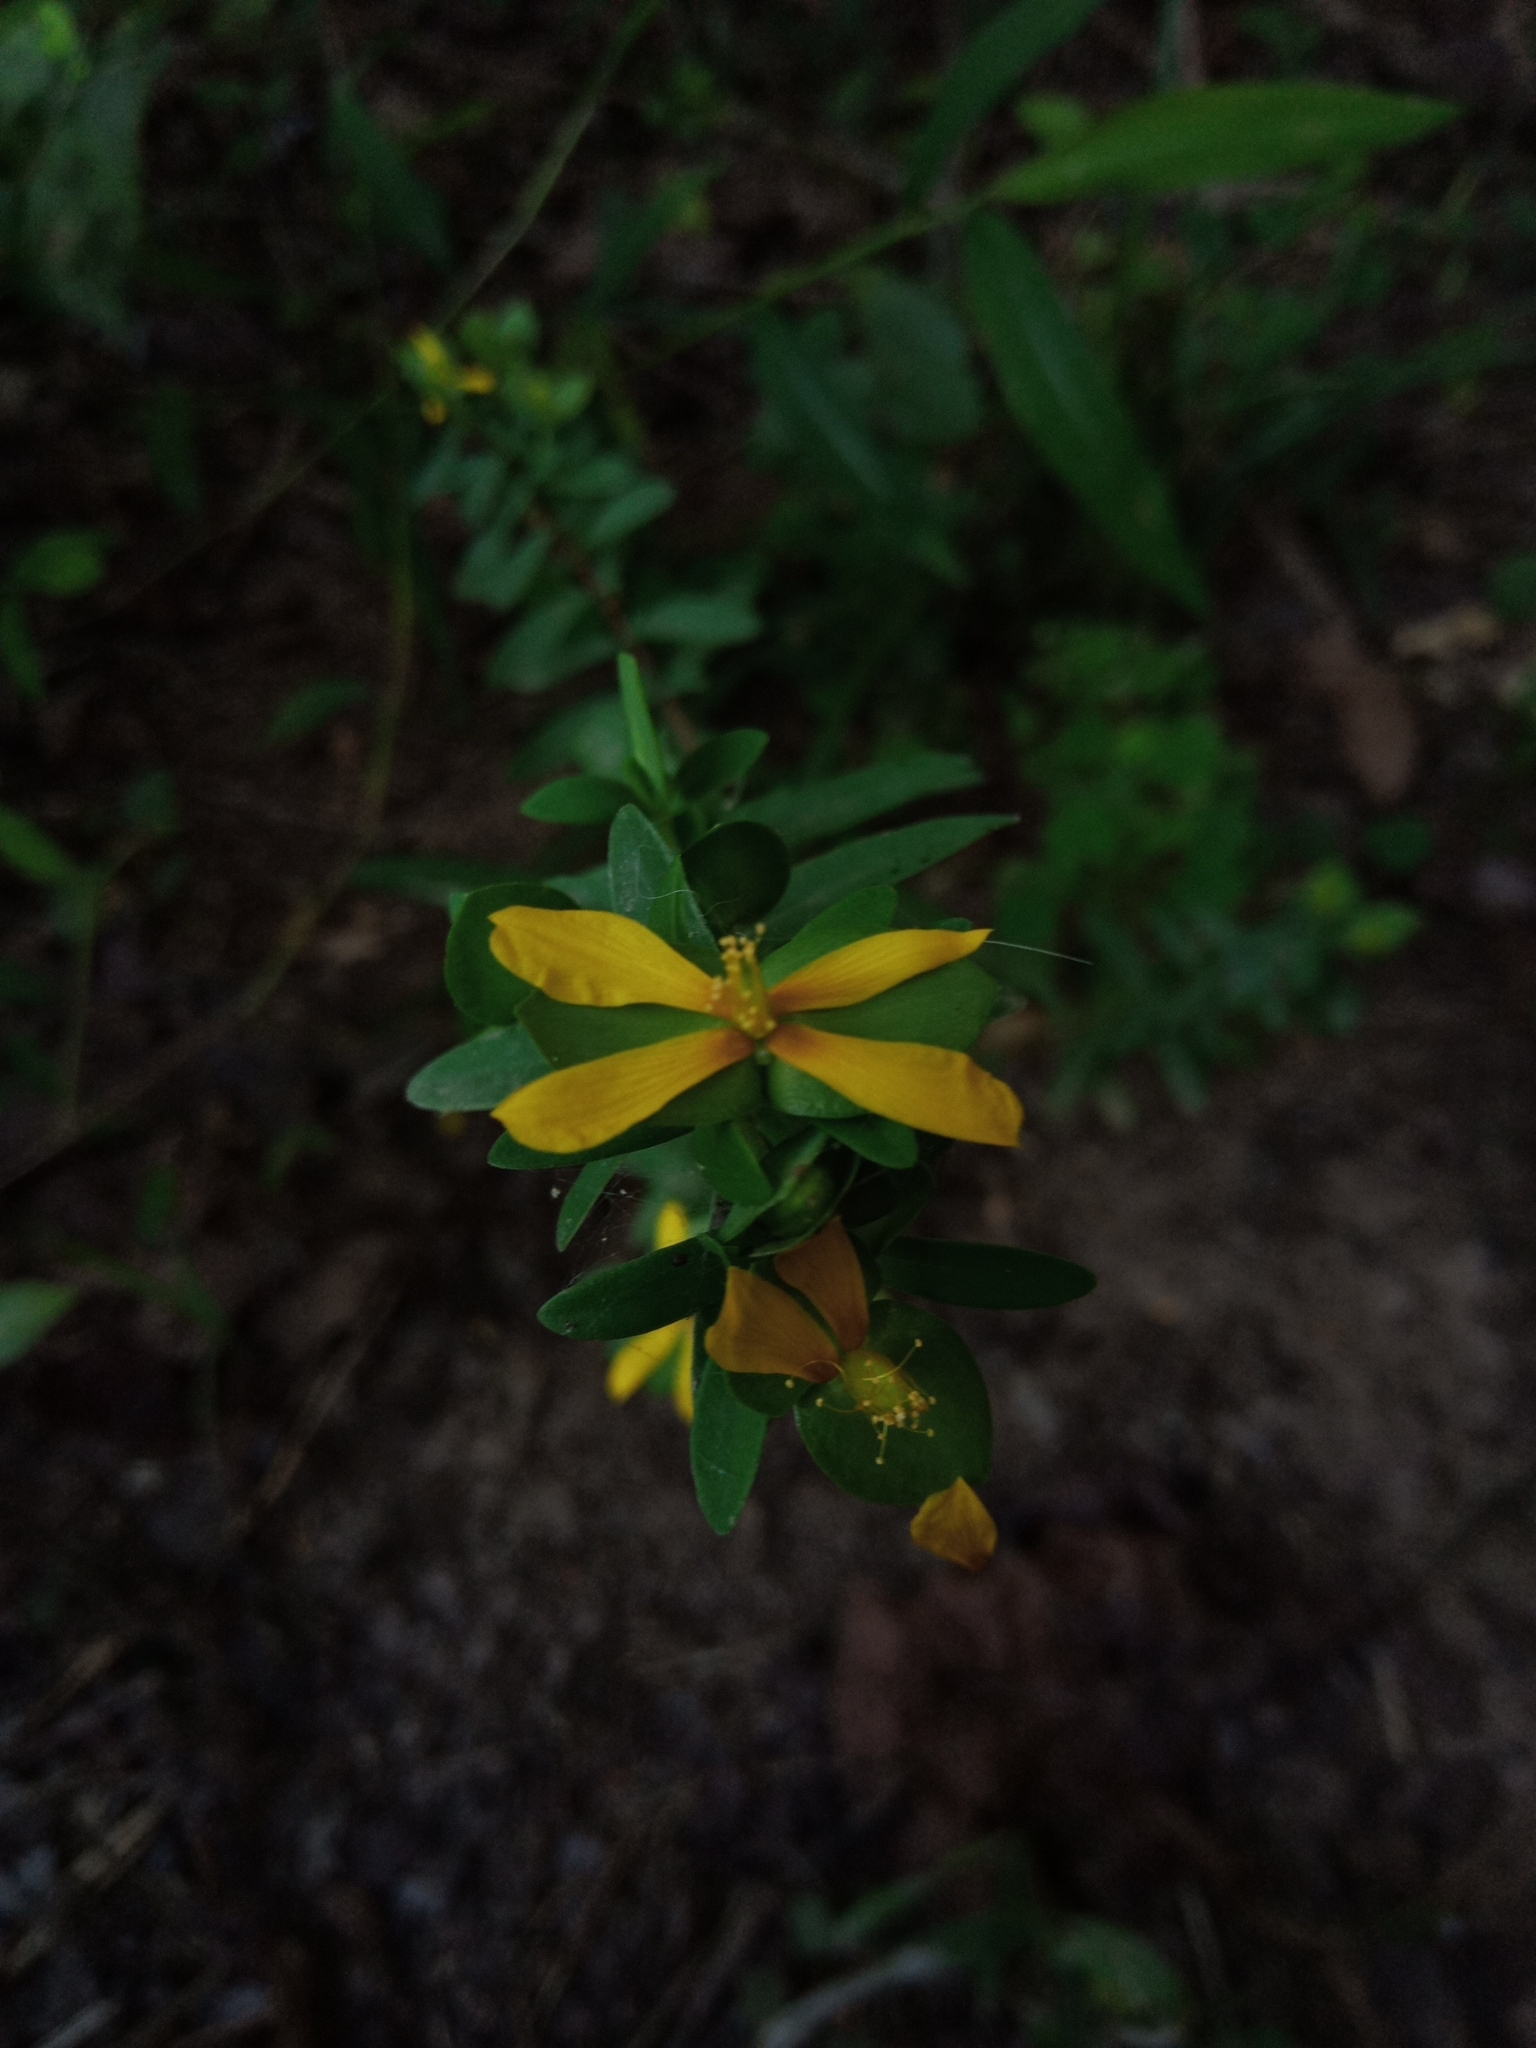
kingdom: Plantae
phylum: Tracheophyta
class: Magnoliopsida
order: Malpighiales
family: Hypericaceae
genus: Hypericum
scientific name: Hypericum hypericoides
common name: St. andrew's cross
